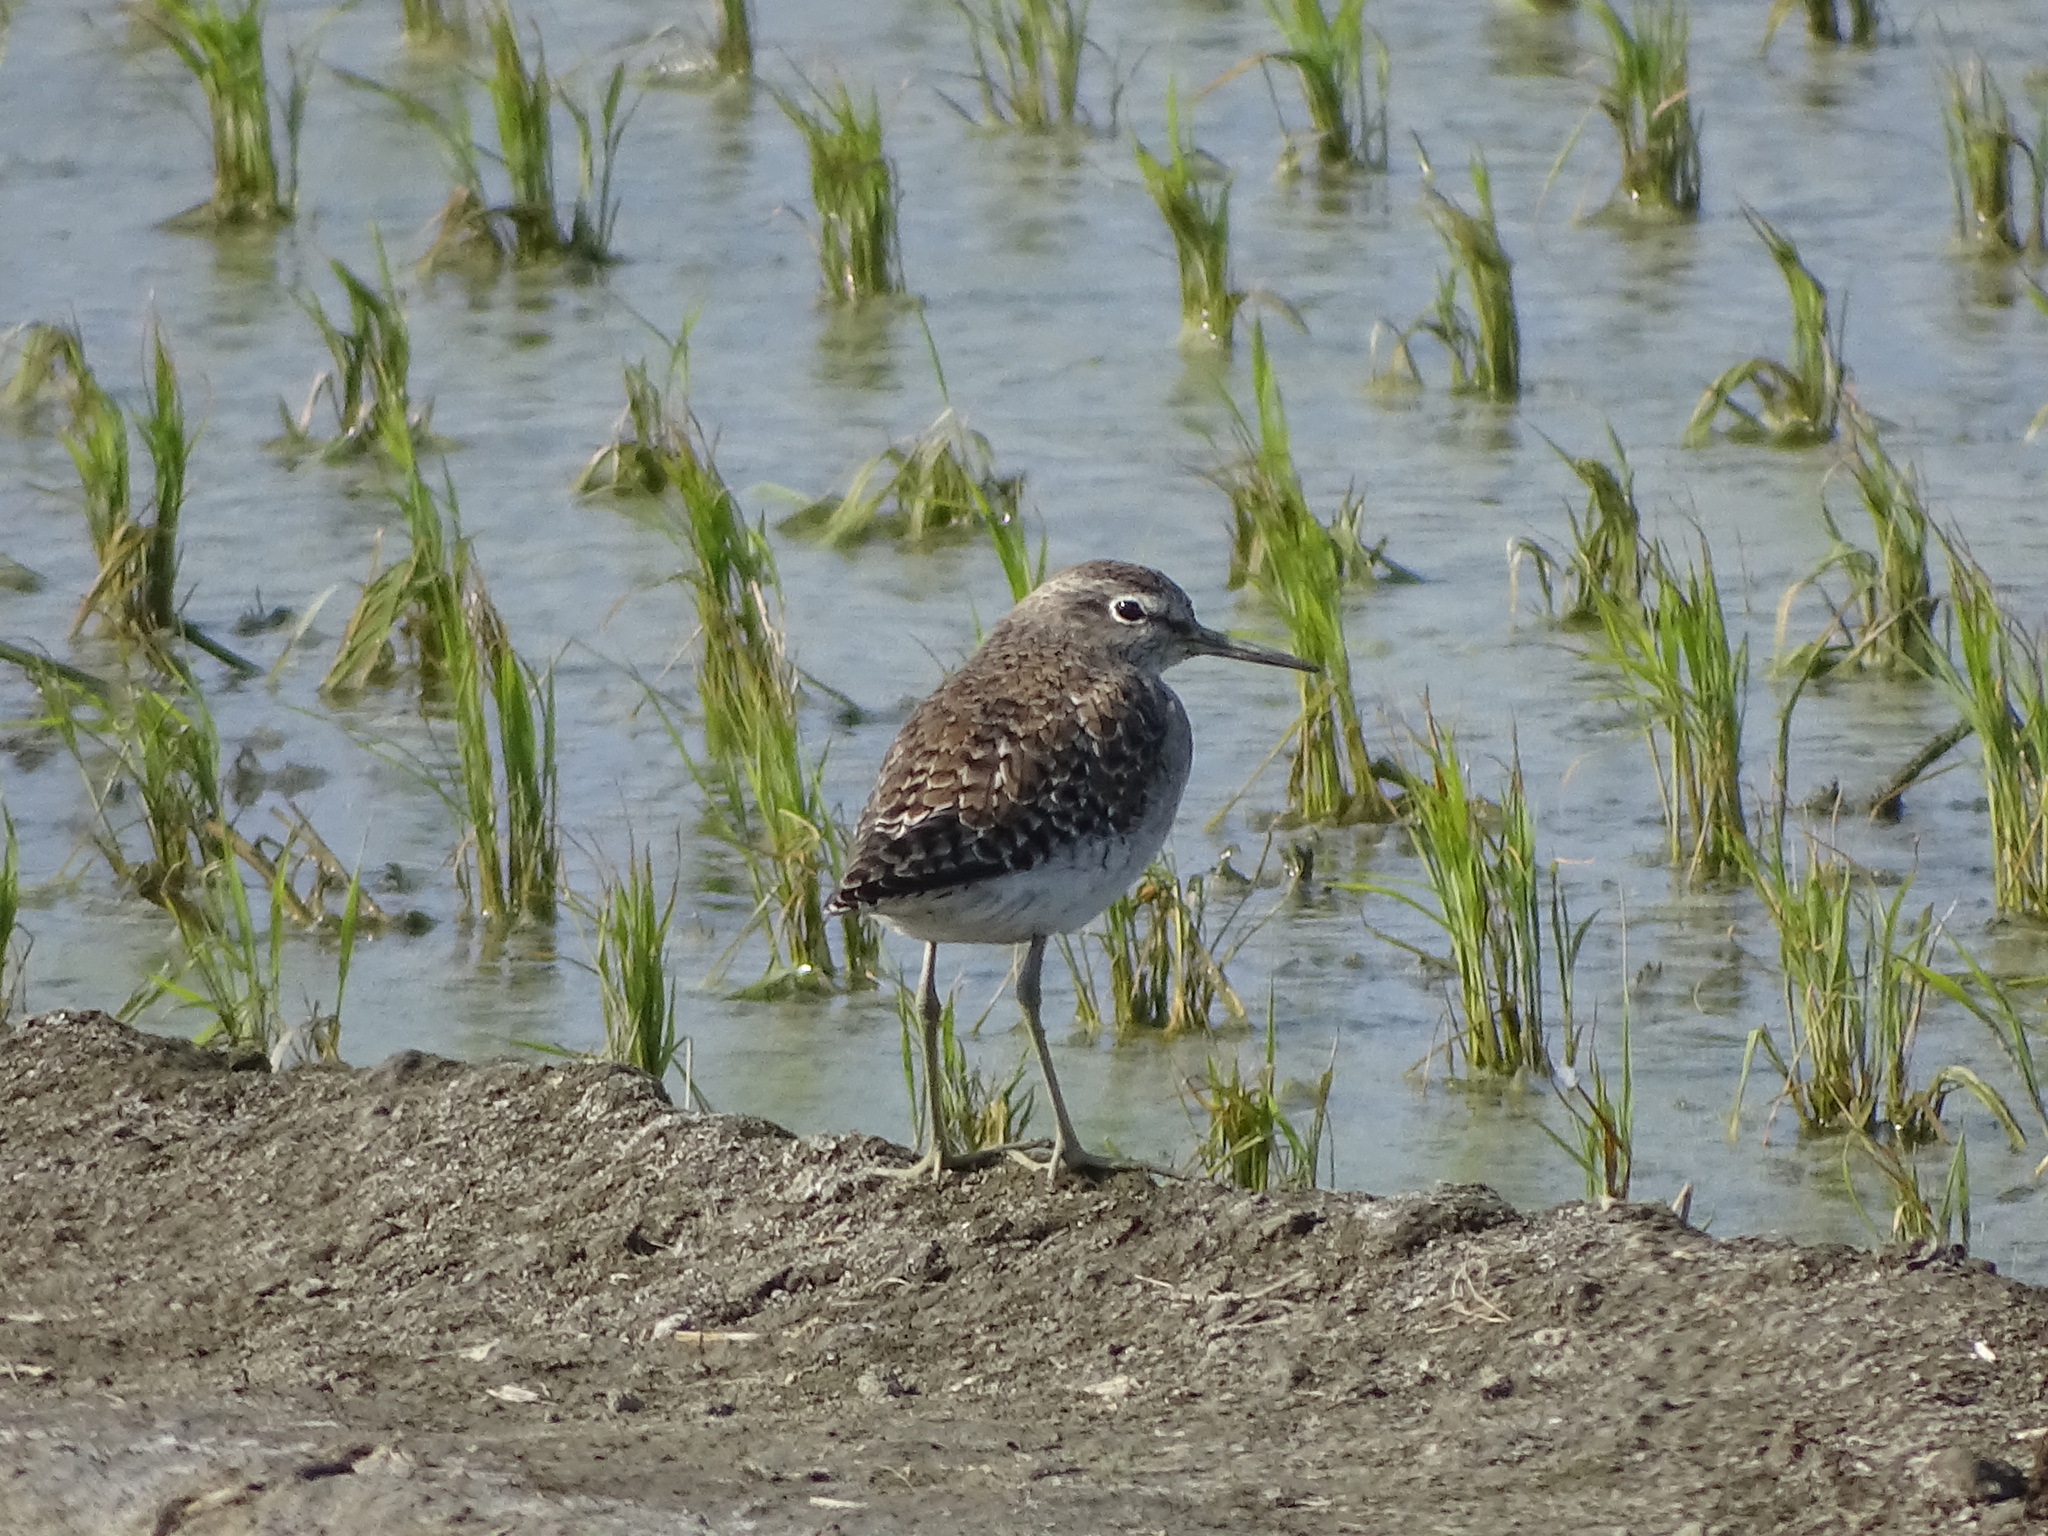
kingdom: Animalia
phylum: Chordata
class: Aves
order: Charadriiformes
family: Scolopacidae
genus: Tringa
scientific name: Tringa glareola
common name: Wood sandpiper
